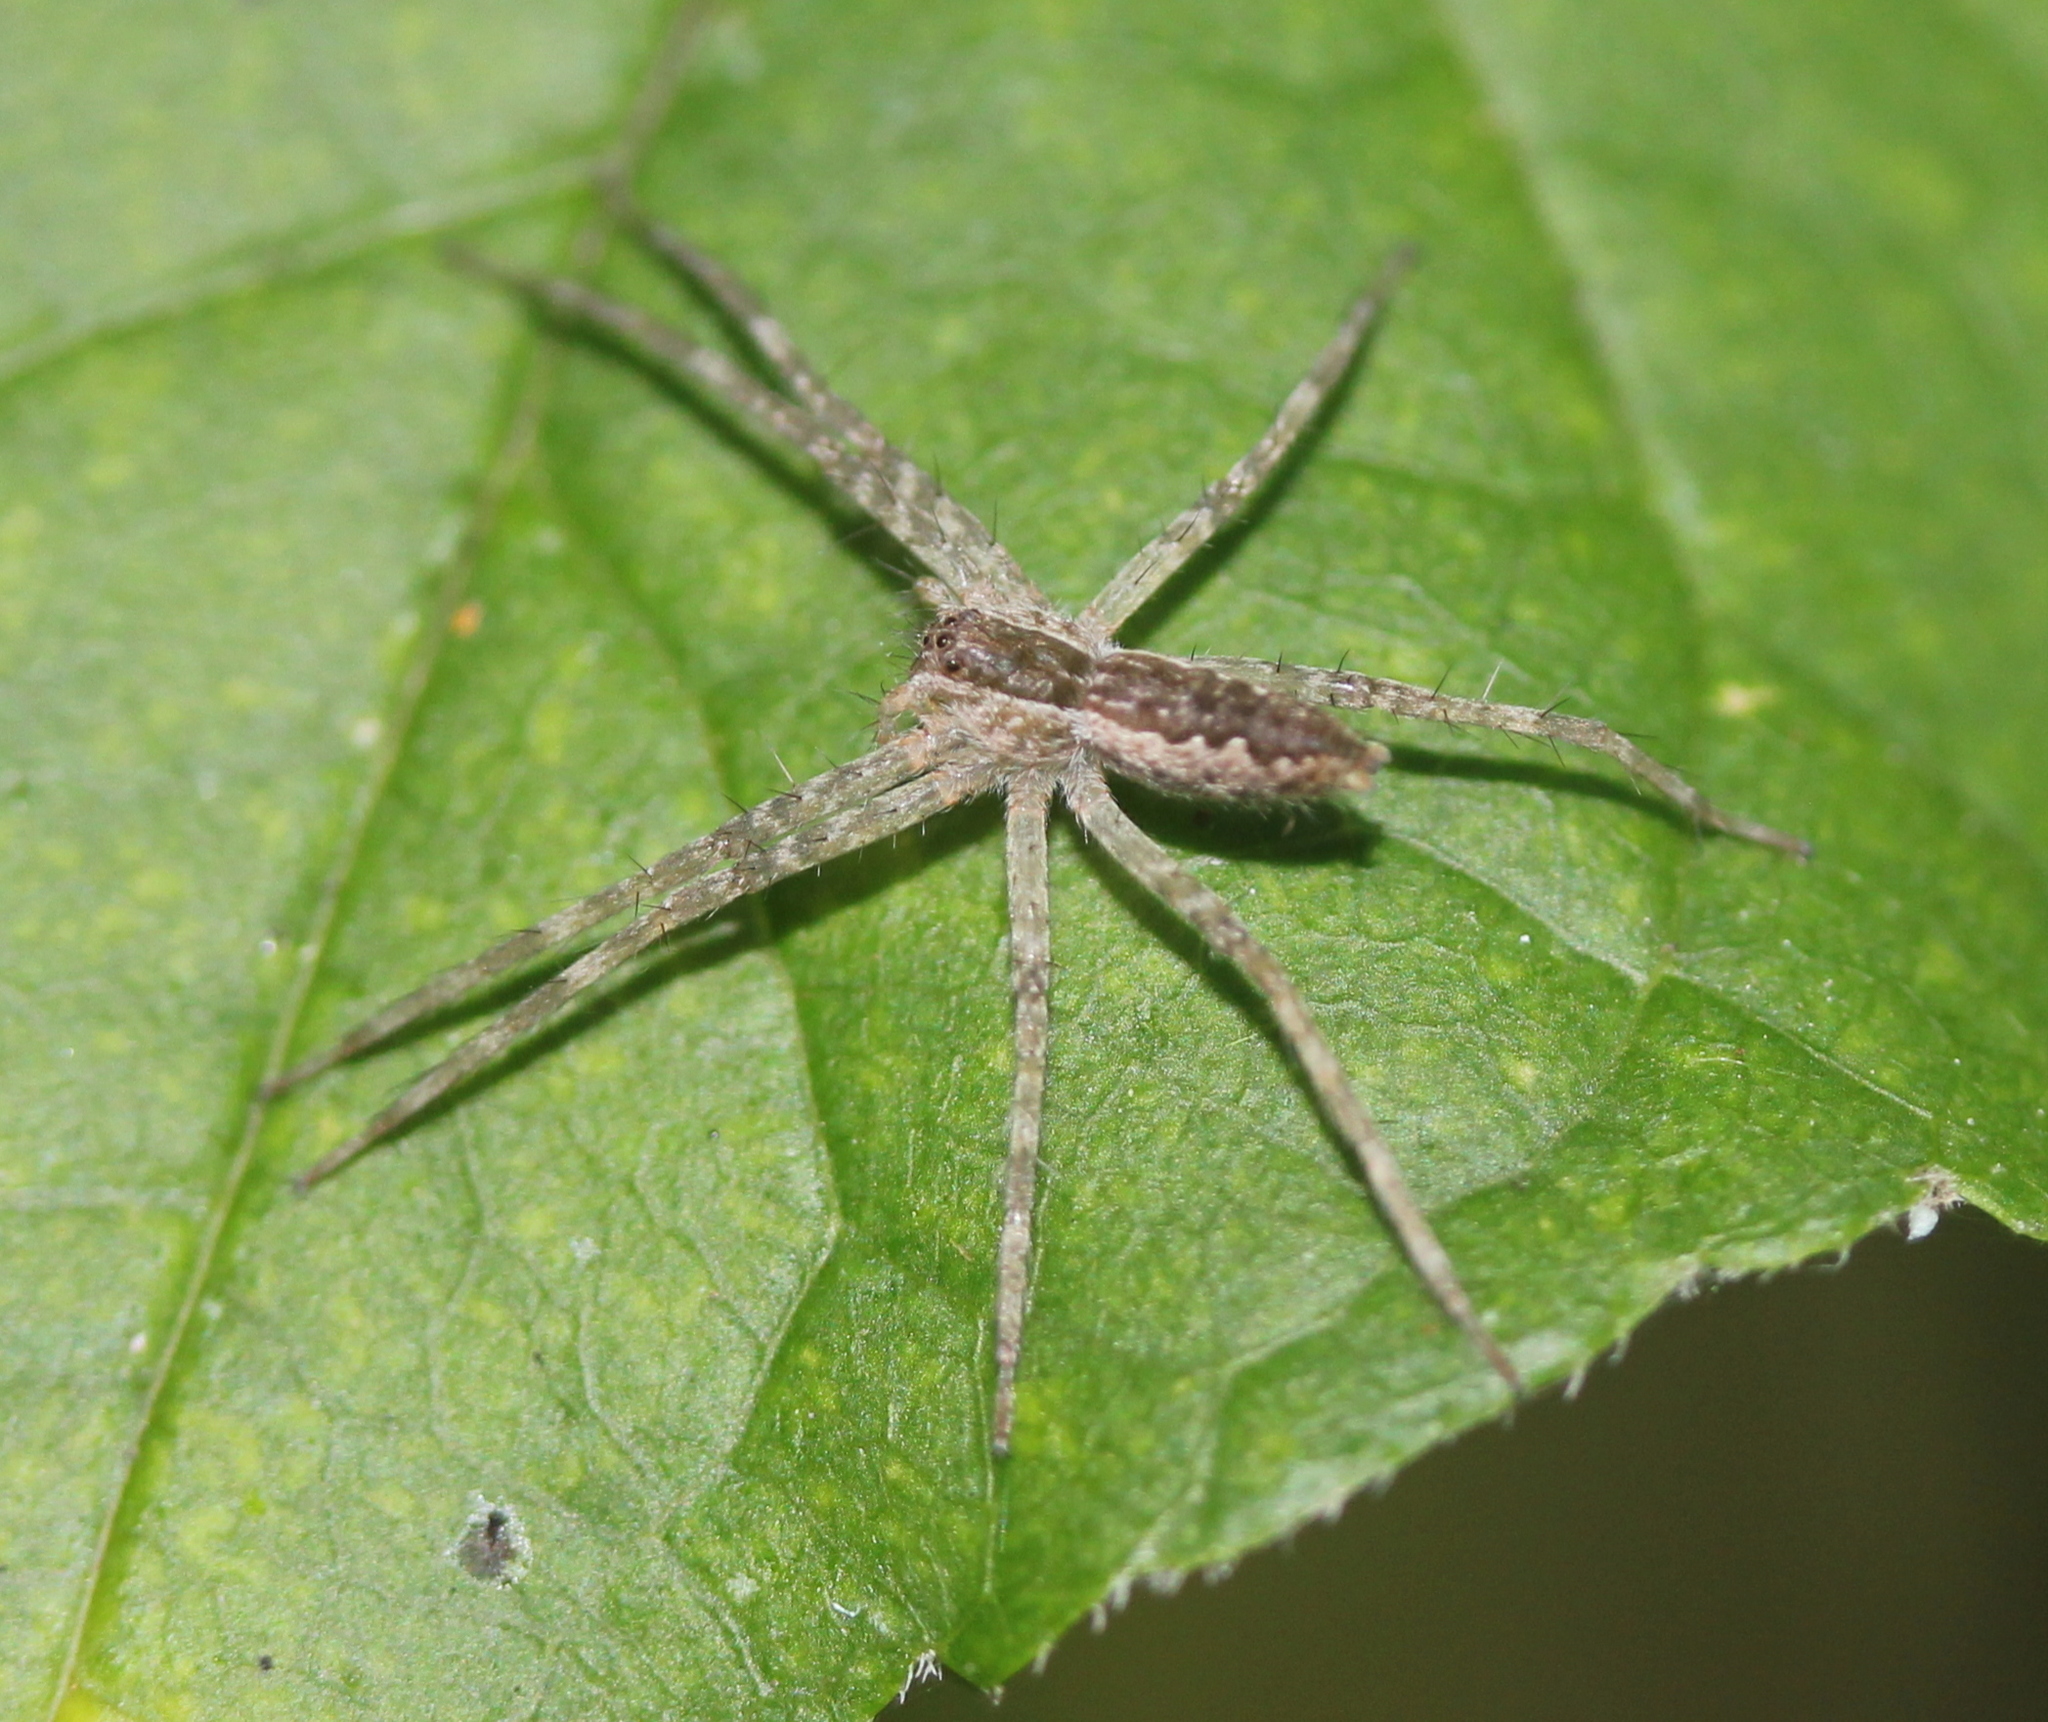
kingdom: Animalia
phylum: Arthropoda
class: Arachnida
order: Araneae
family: Pisauridae
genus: Pisaurina
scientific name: Pisaurina mira
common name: American nursery web spider
